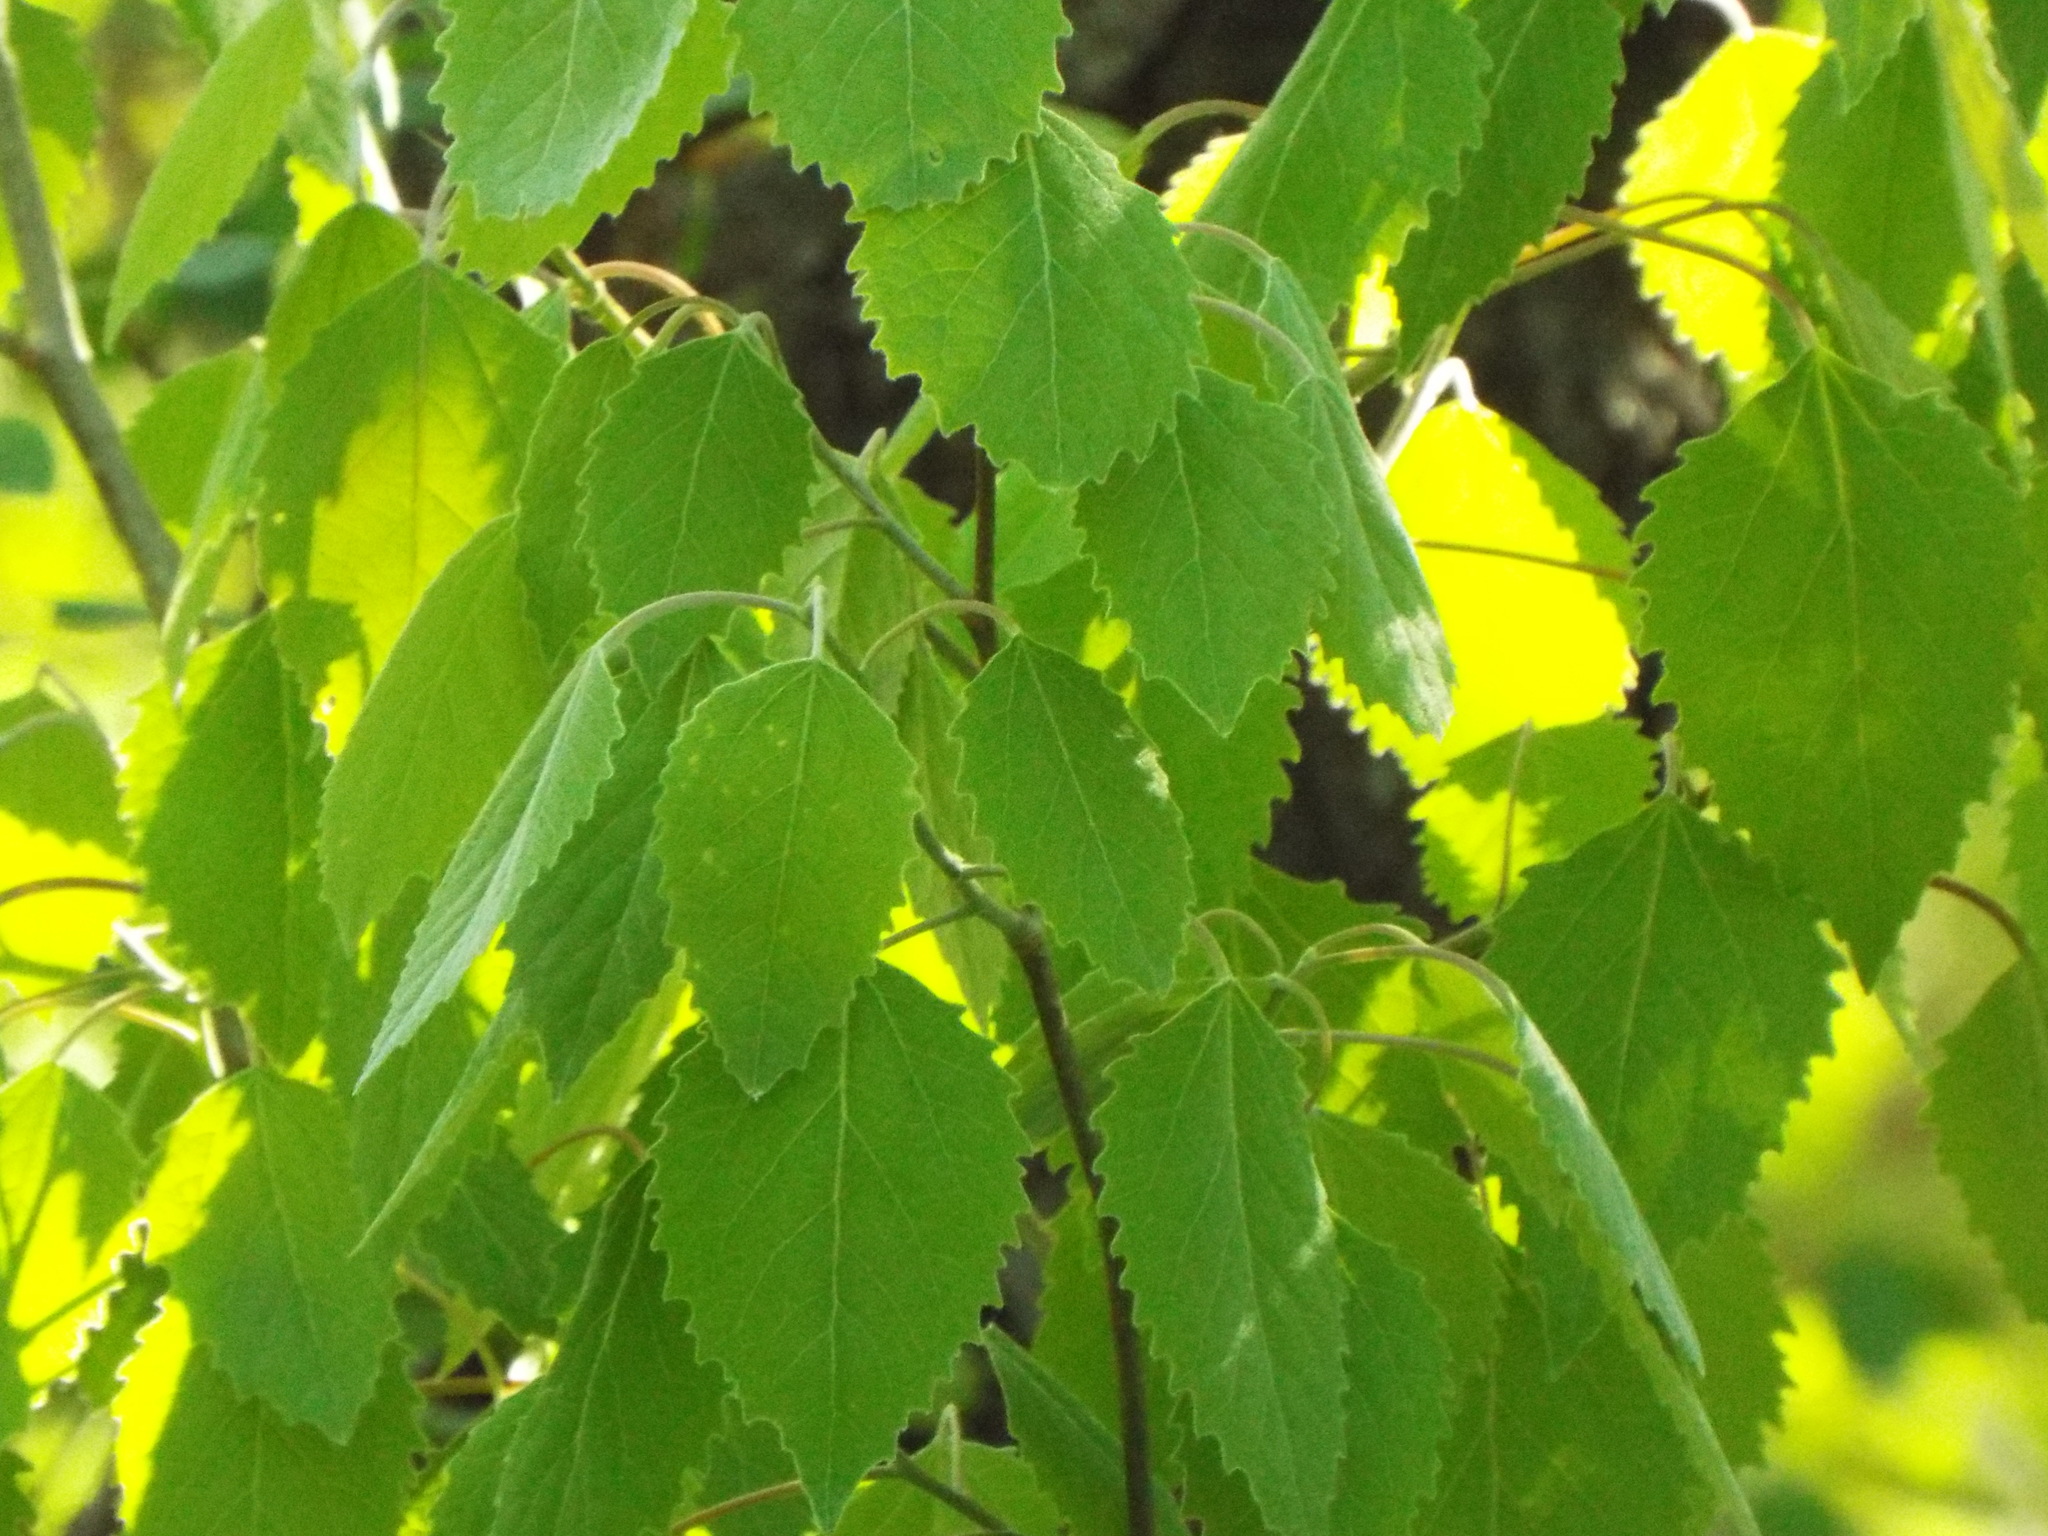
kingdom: Plantae
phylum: Tracheophyta
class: Magnoliopsida
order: Malpighiales
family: Salicaceae
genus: Populus
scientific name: Populus grandidentata
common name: Bigtooth aspen
